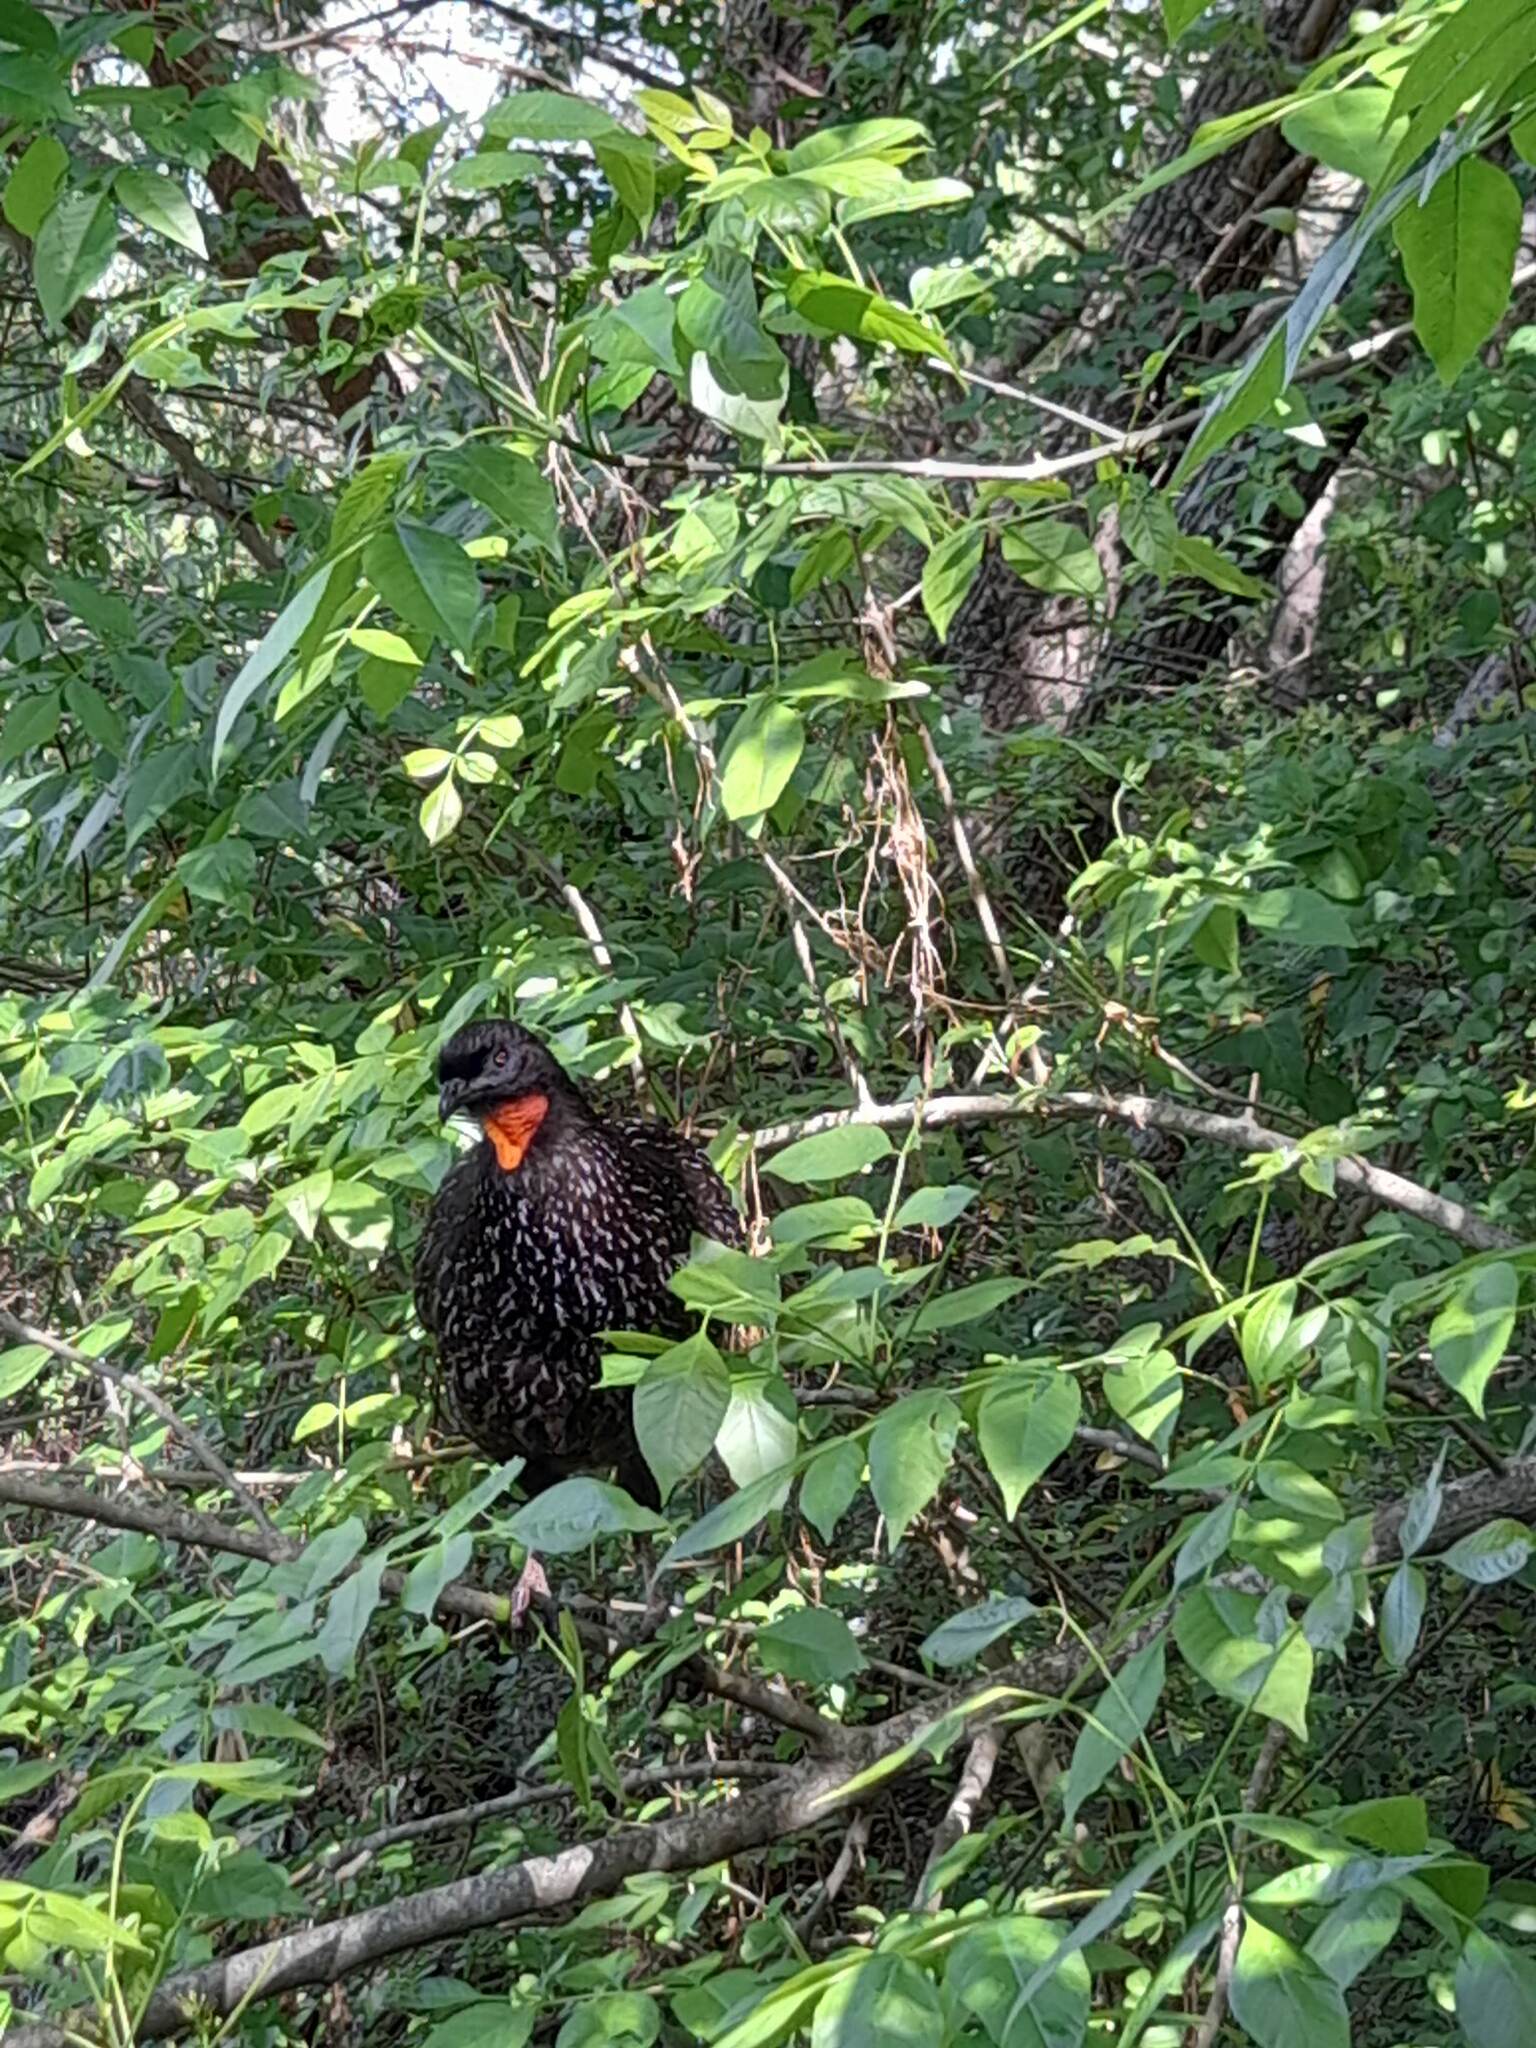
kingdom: Animalia
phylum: Chordata
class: Aves
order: Galliformes
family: Cracidae
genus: Penelope
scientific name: Penelope obscura
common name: Dusky-legged guan
